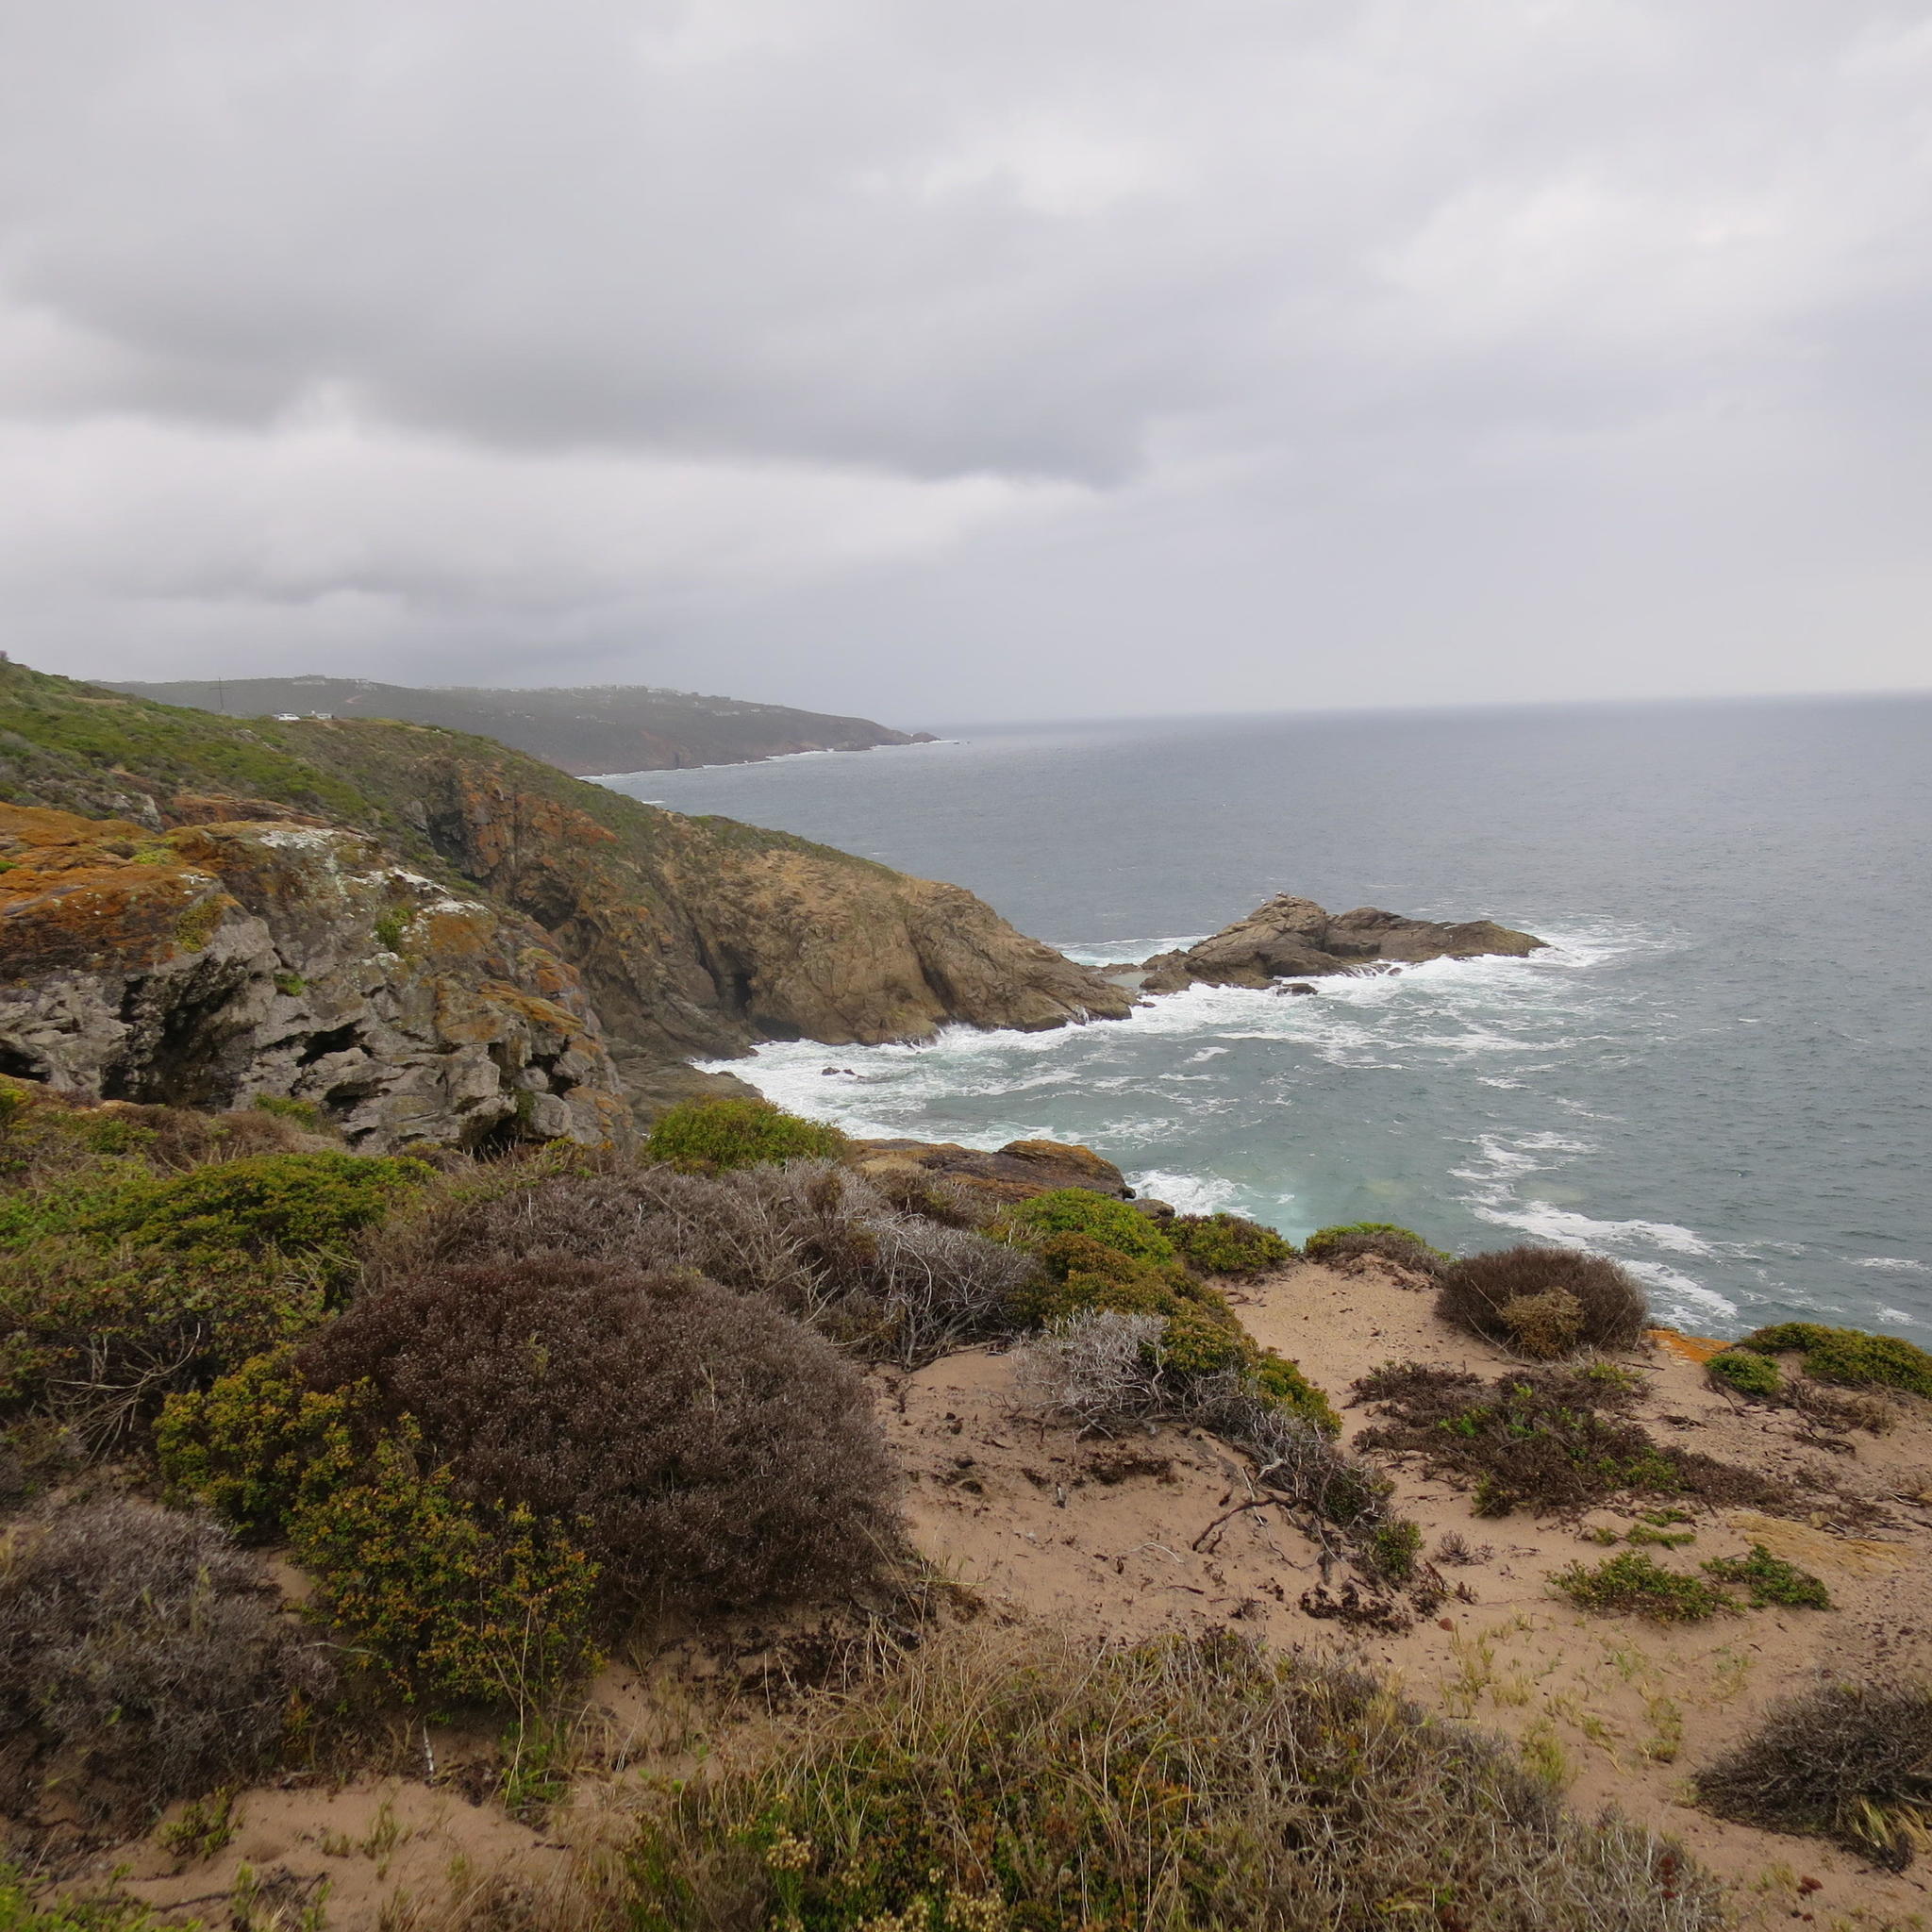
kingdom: Plantae
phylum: Tracheophyta
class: Magnoliopsida
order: Fabales
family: Fabaceae
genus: Acacia
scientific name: Acacia cyclops
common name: Coastal wattle
